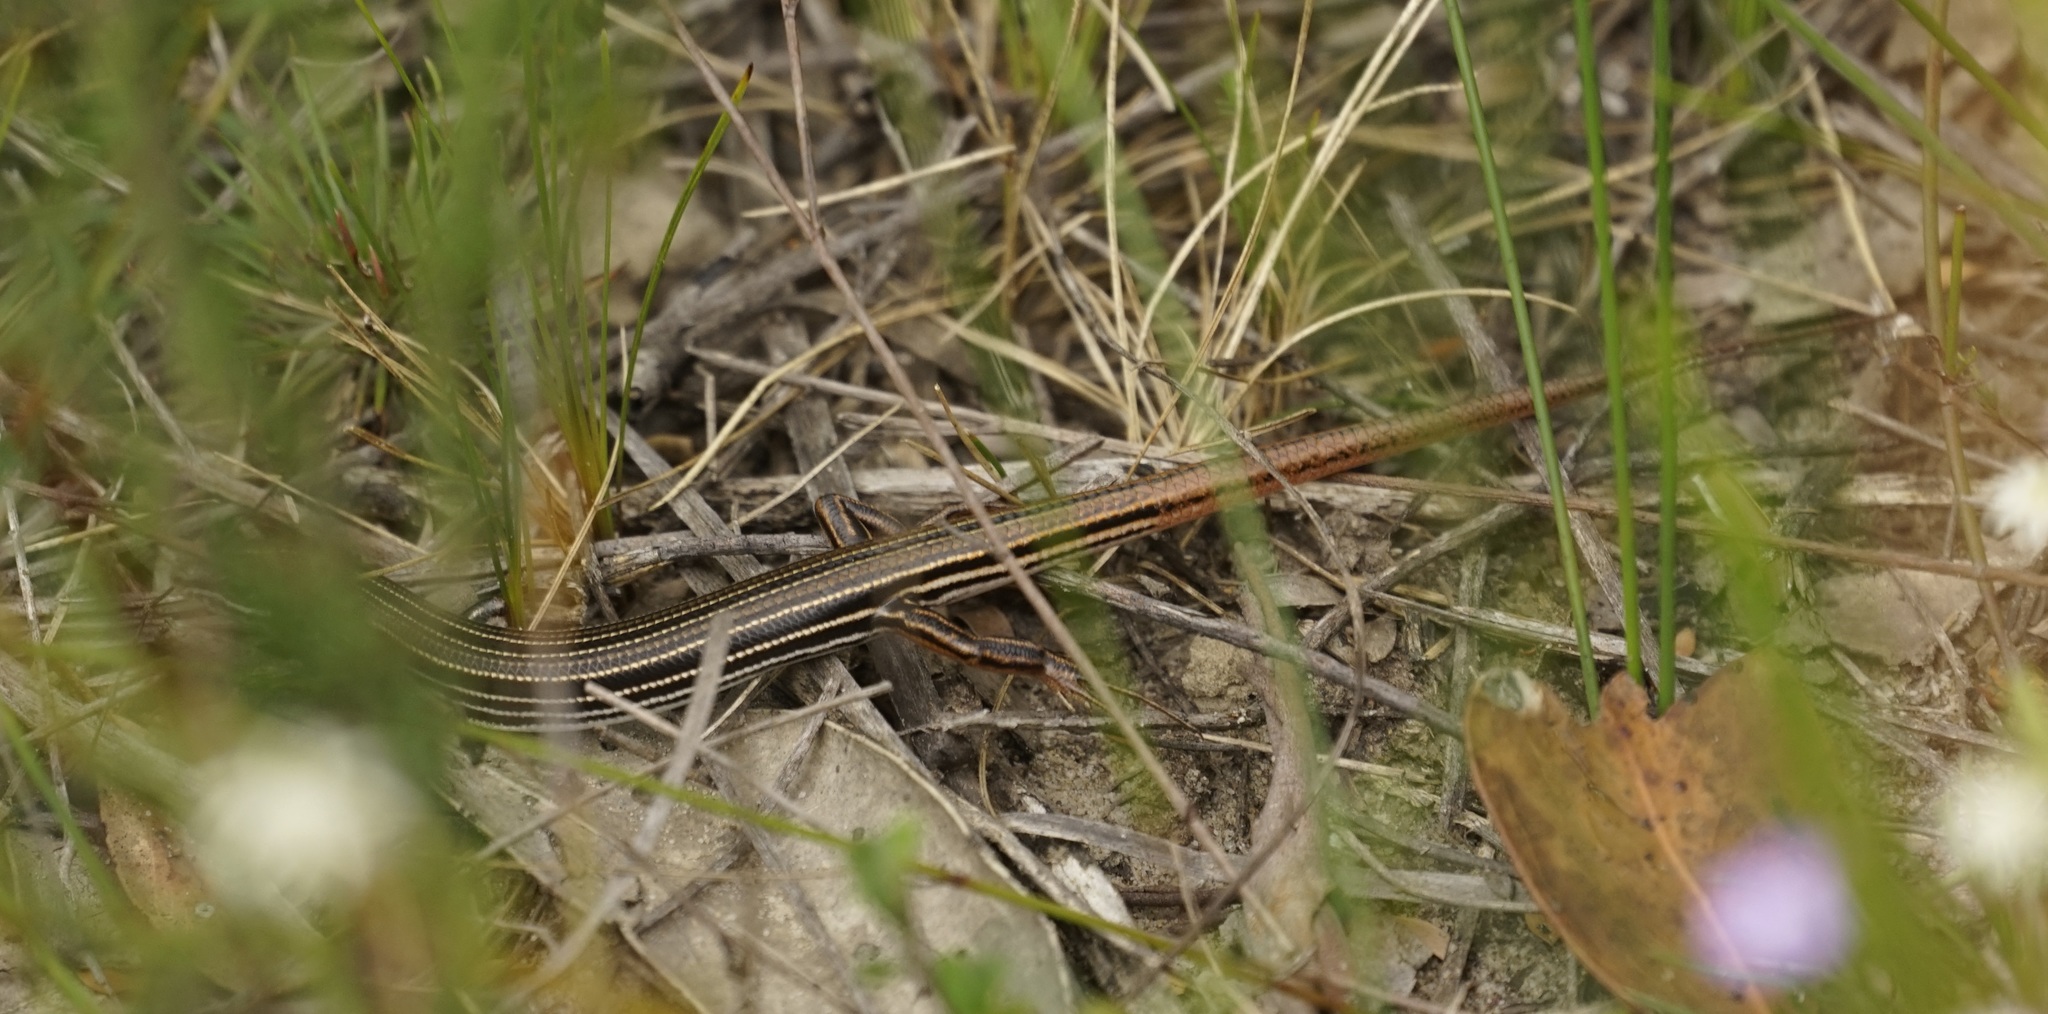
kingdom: Animalia
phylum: Chordata
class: Squamata
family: Scincidae
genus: Ctenotus
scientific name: Ctenotus taeniolatus
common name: Copper-tailed skink
